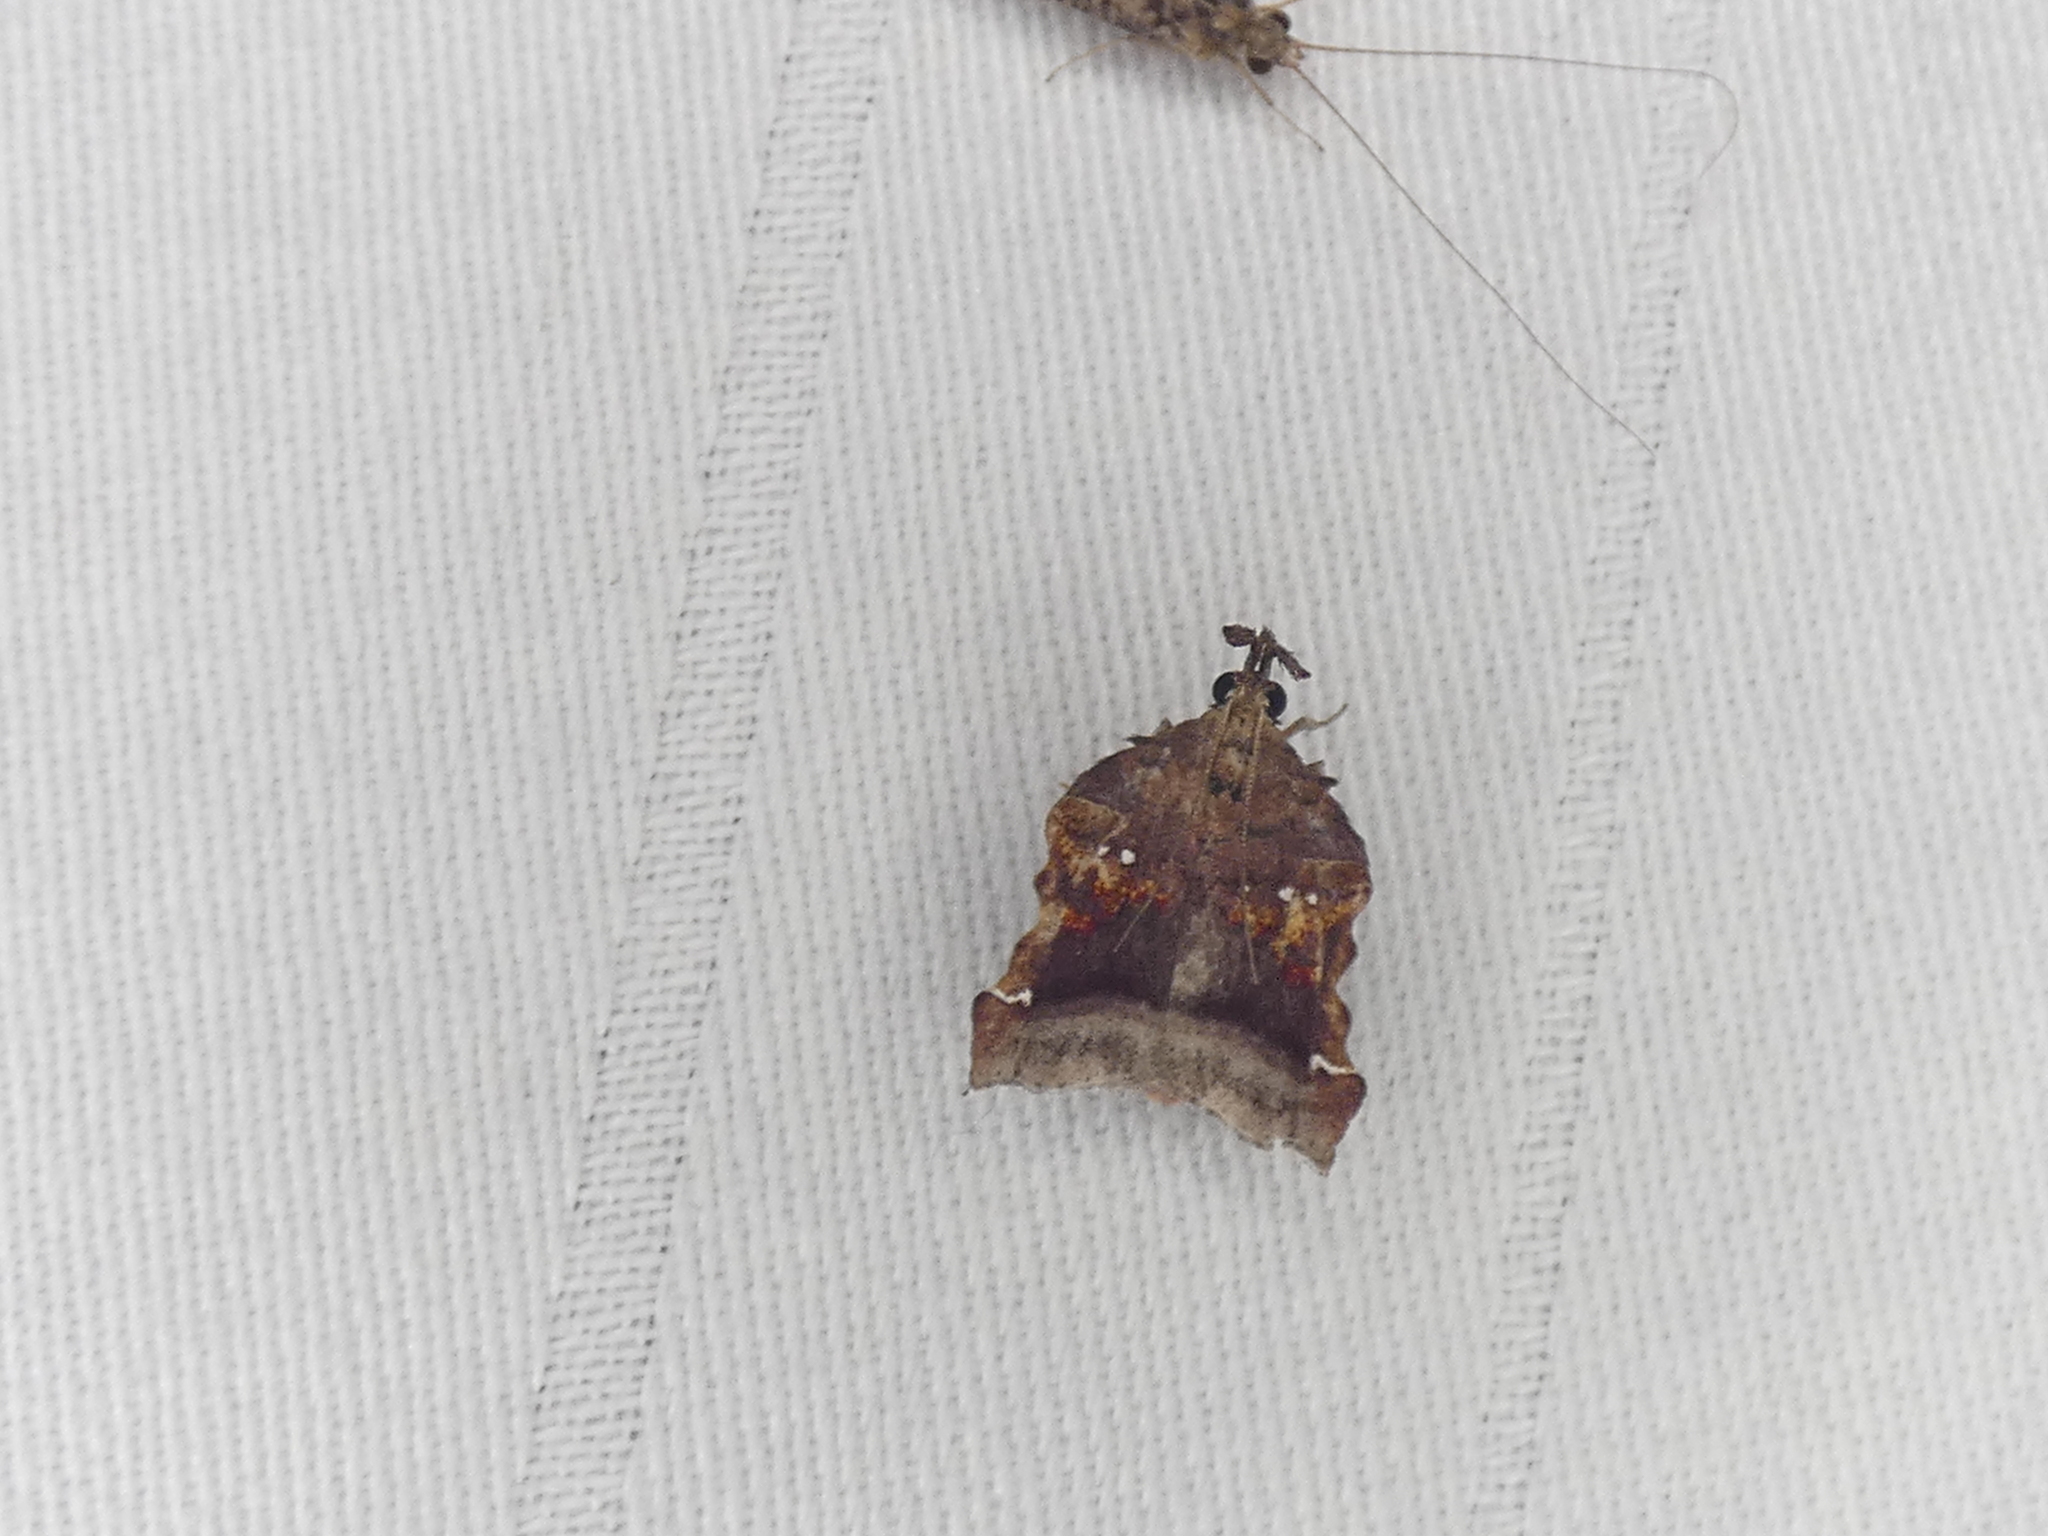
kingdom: Animalia
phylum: Arthropoda
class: Insecta
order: Lepidoptera
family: Pyralidae
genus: Clydonopteron
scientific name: Clydonopteron sacculana
